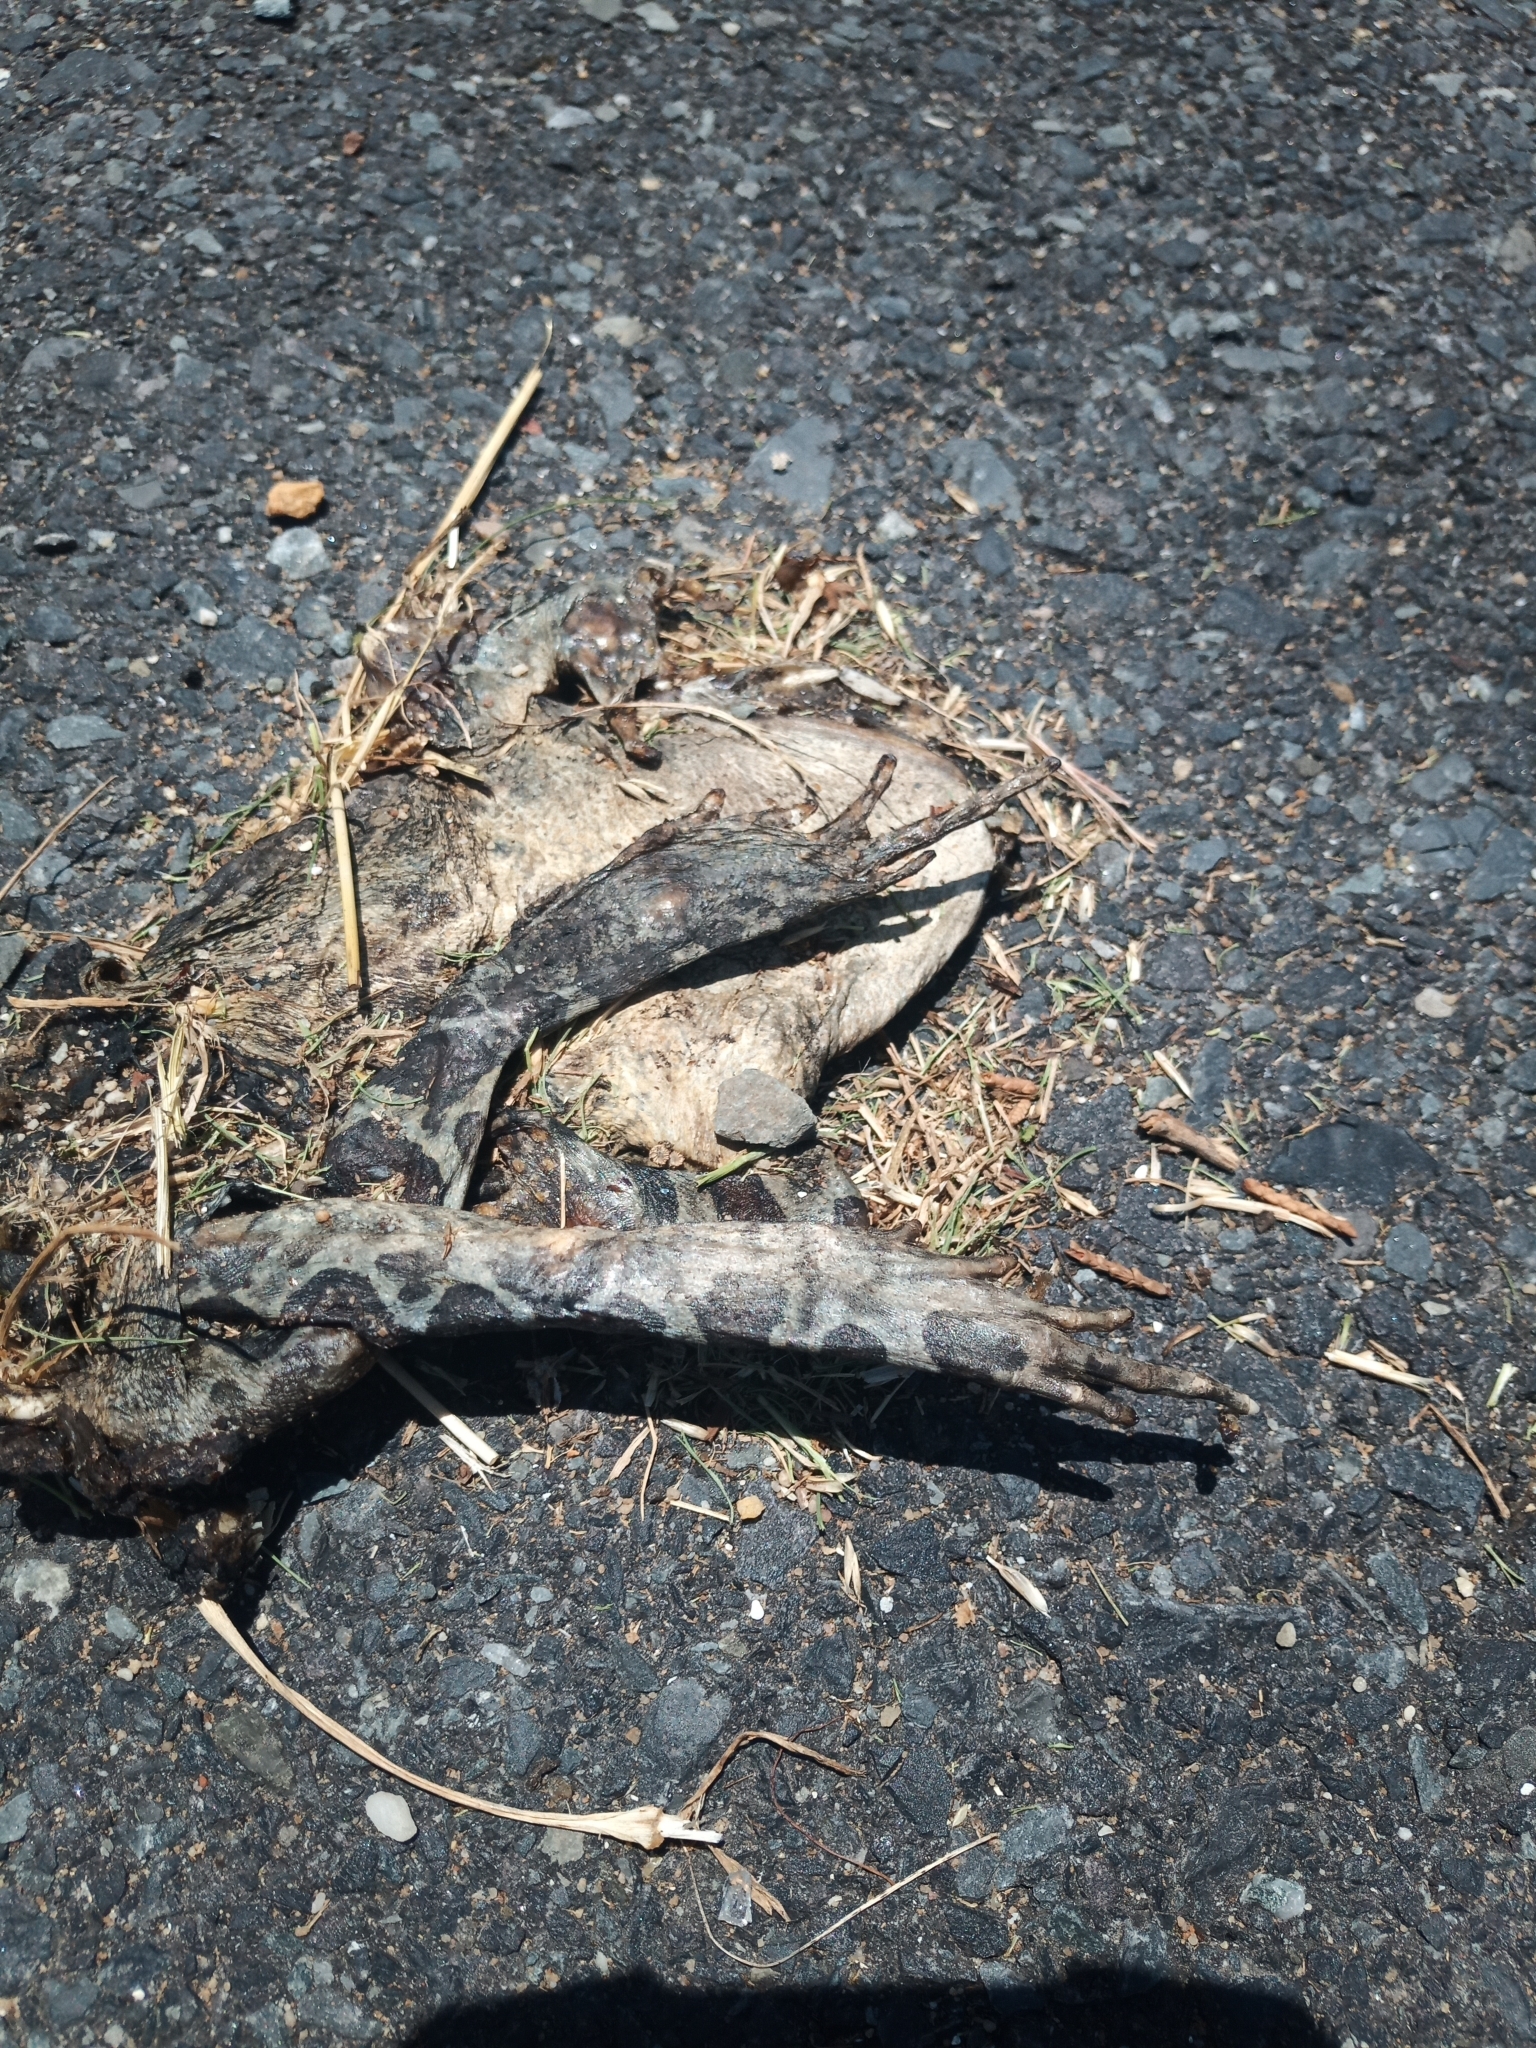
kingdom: Animalia
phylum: Chordata
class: Amphibia
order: Anura
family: Bufonidae
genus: Sclerophrys
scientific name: Sclerophrys pantherina
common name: Panther toad
